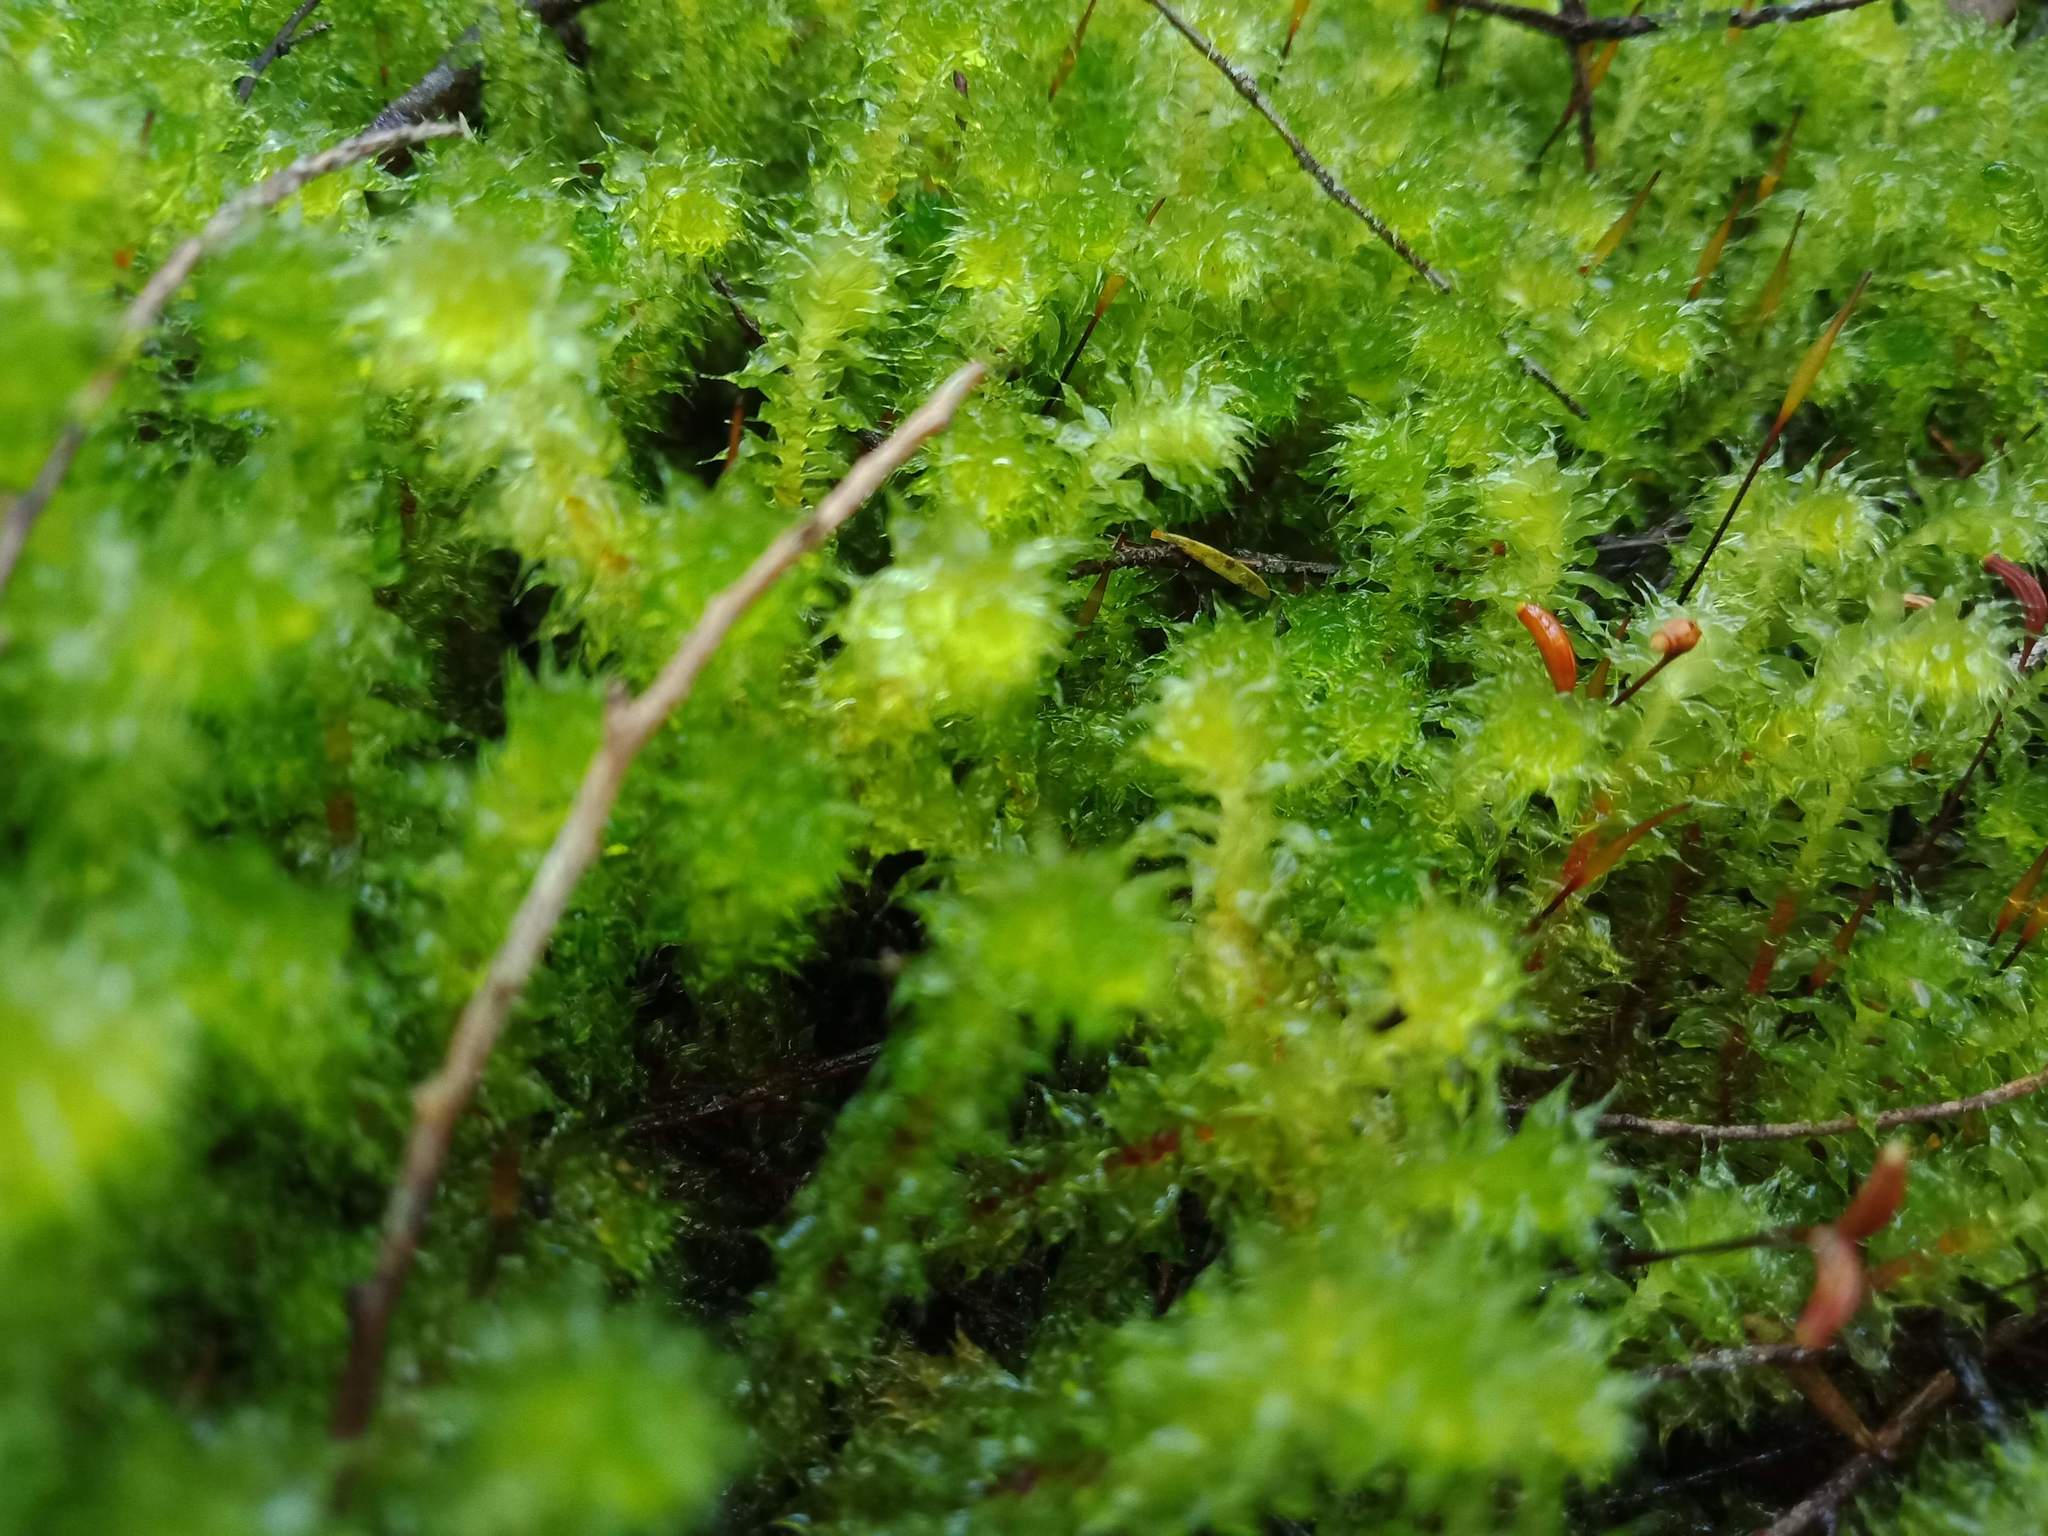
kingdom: Plantae
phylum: Bryophyta
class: Bryopsida
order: Ptychomniales
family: Ptychomniaceae
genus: Ptychomnion
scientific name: Ptychomnion aciculare
